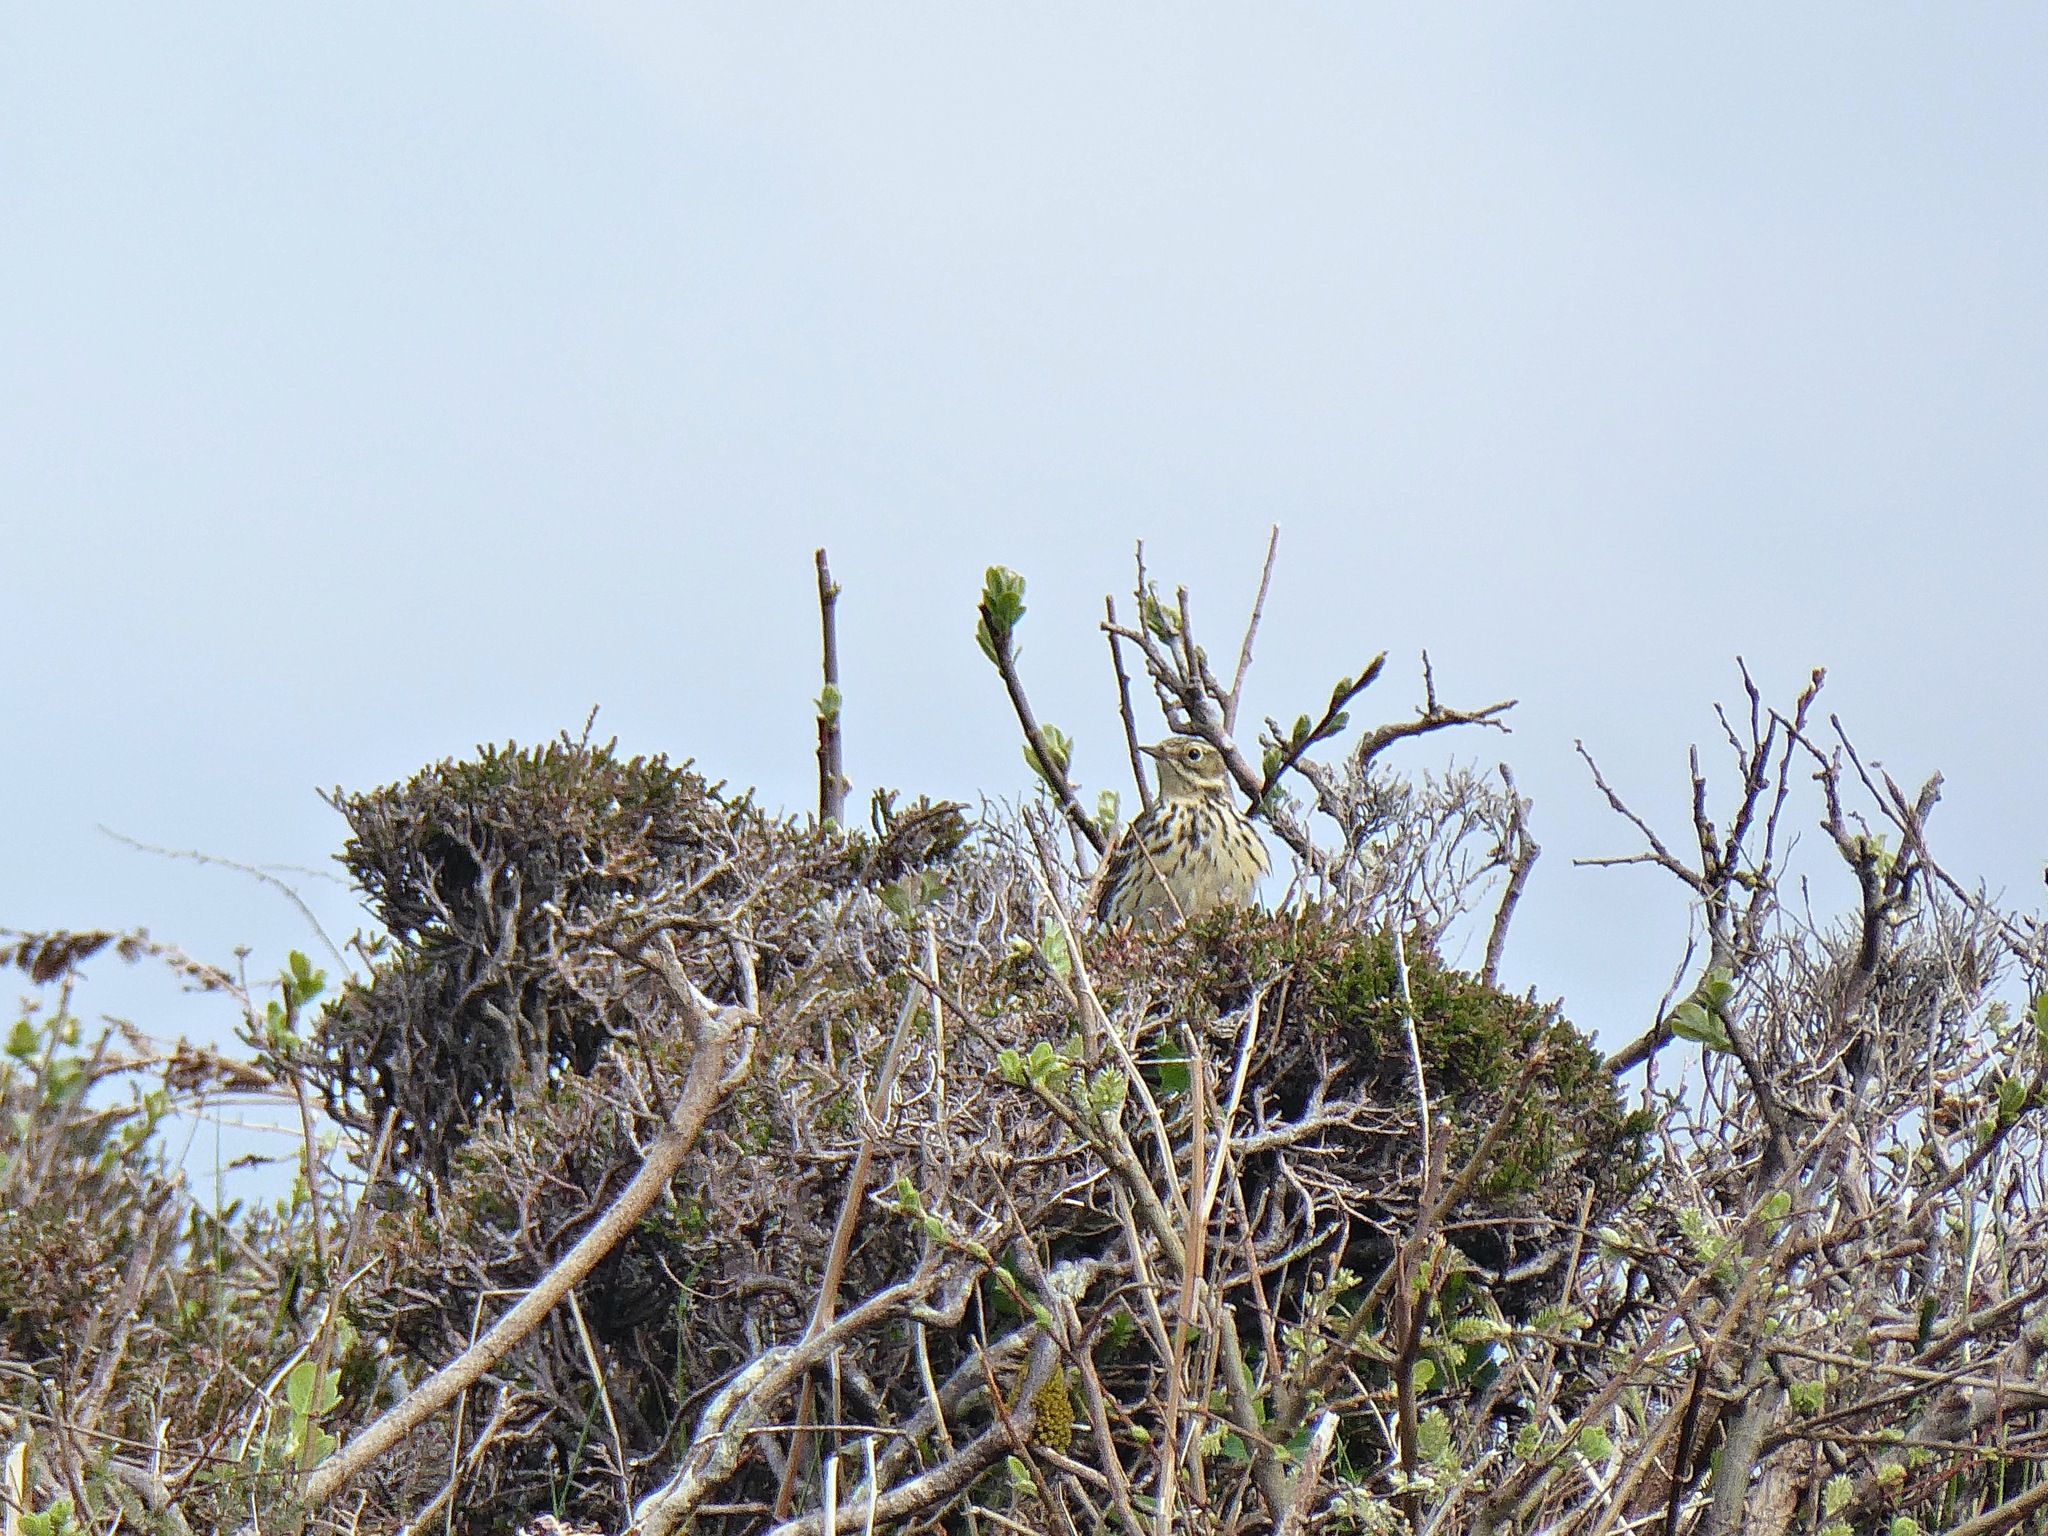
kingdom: Animalia
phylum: Chordata
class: Aves
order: Passeriformes
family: Motacillidae
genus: Anthus
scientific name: Anthus pratensis
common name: Meadow pipit
